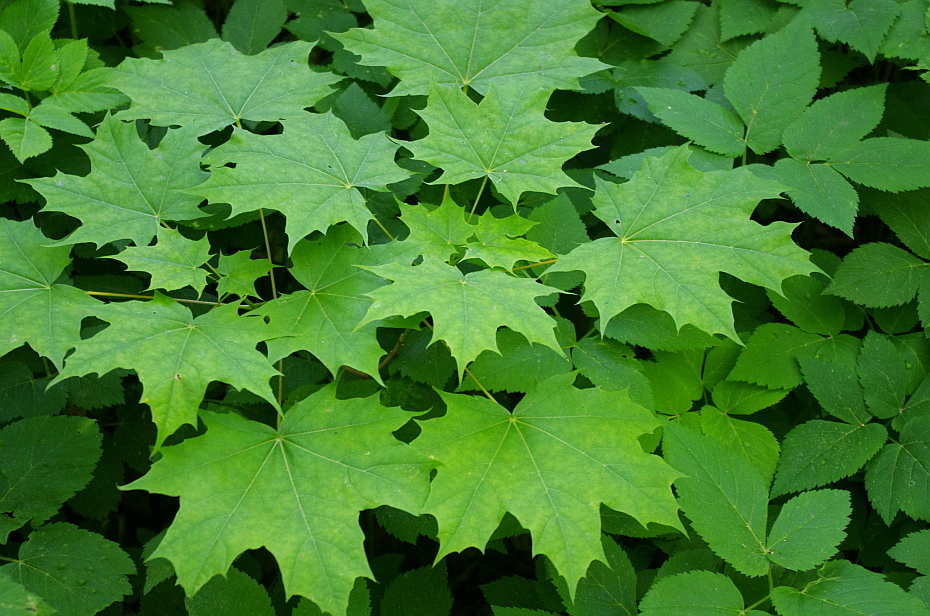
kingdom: Plantae
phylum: Tracheophyta
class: Magnoliopsida
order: Sapindales
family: Sapindaceae
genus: Acer
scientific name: Acer platanoides
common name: Norway maple
